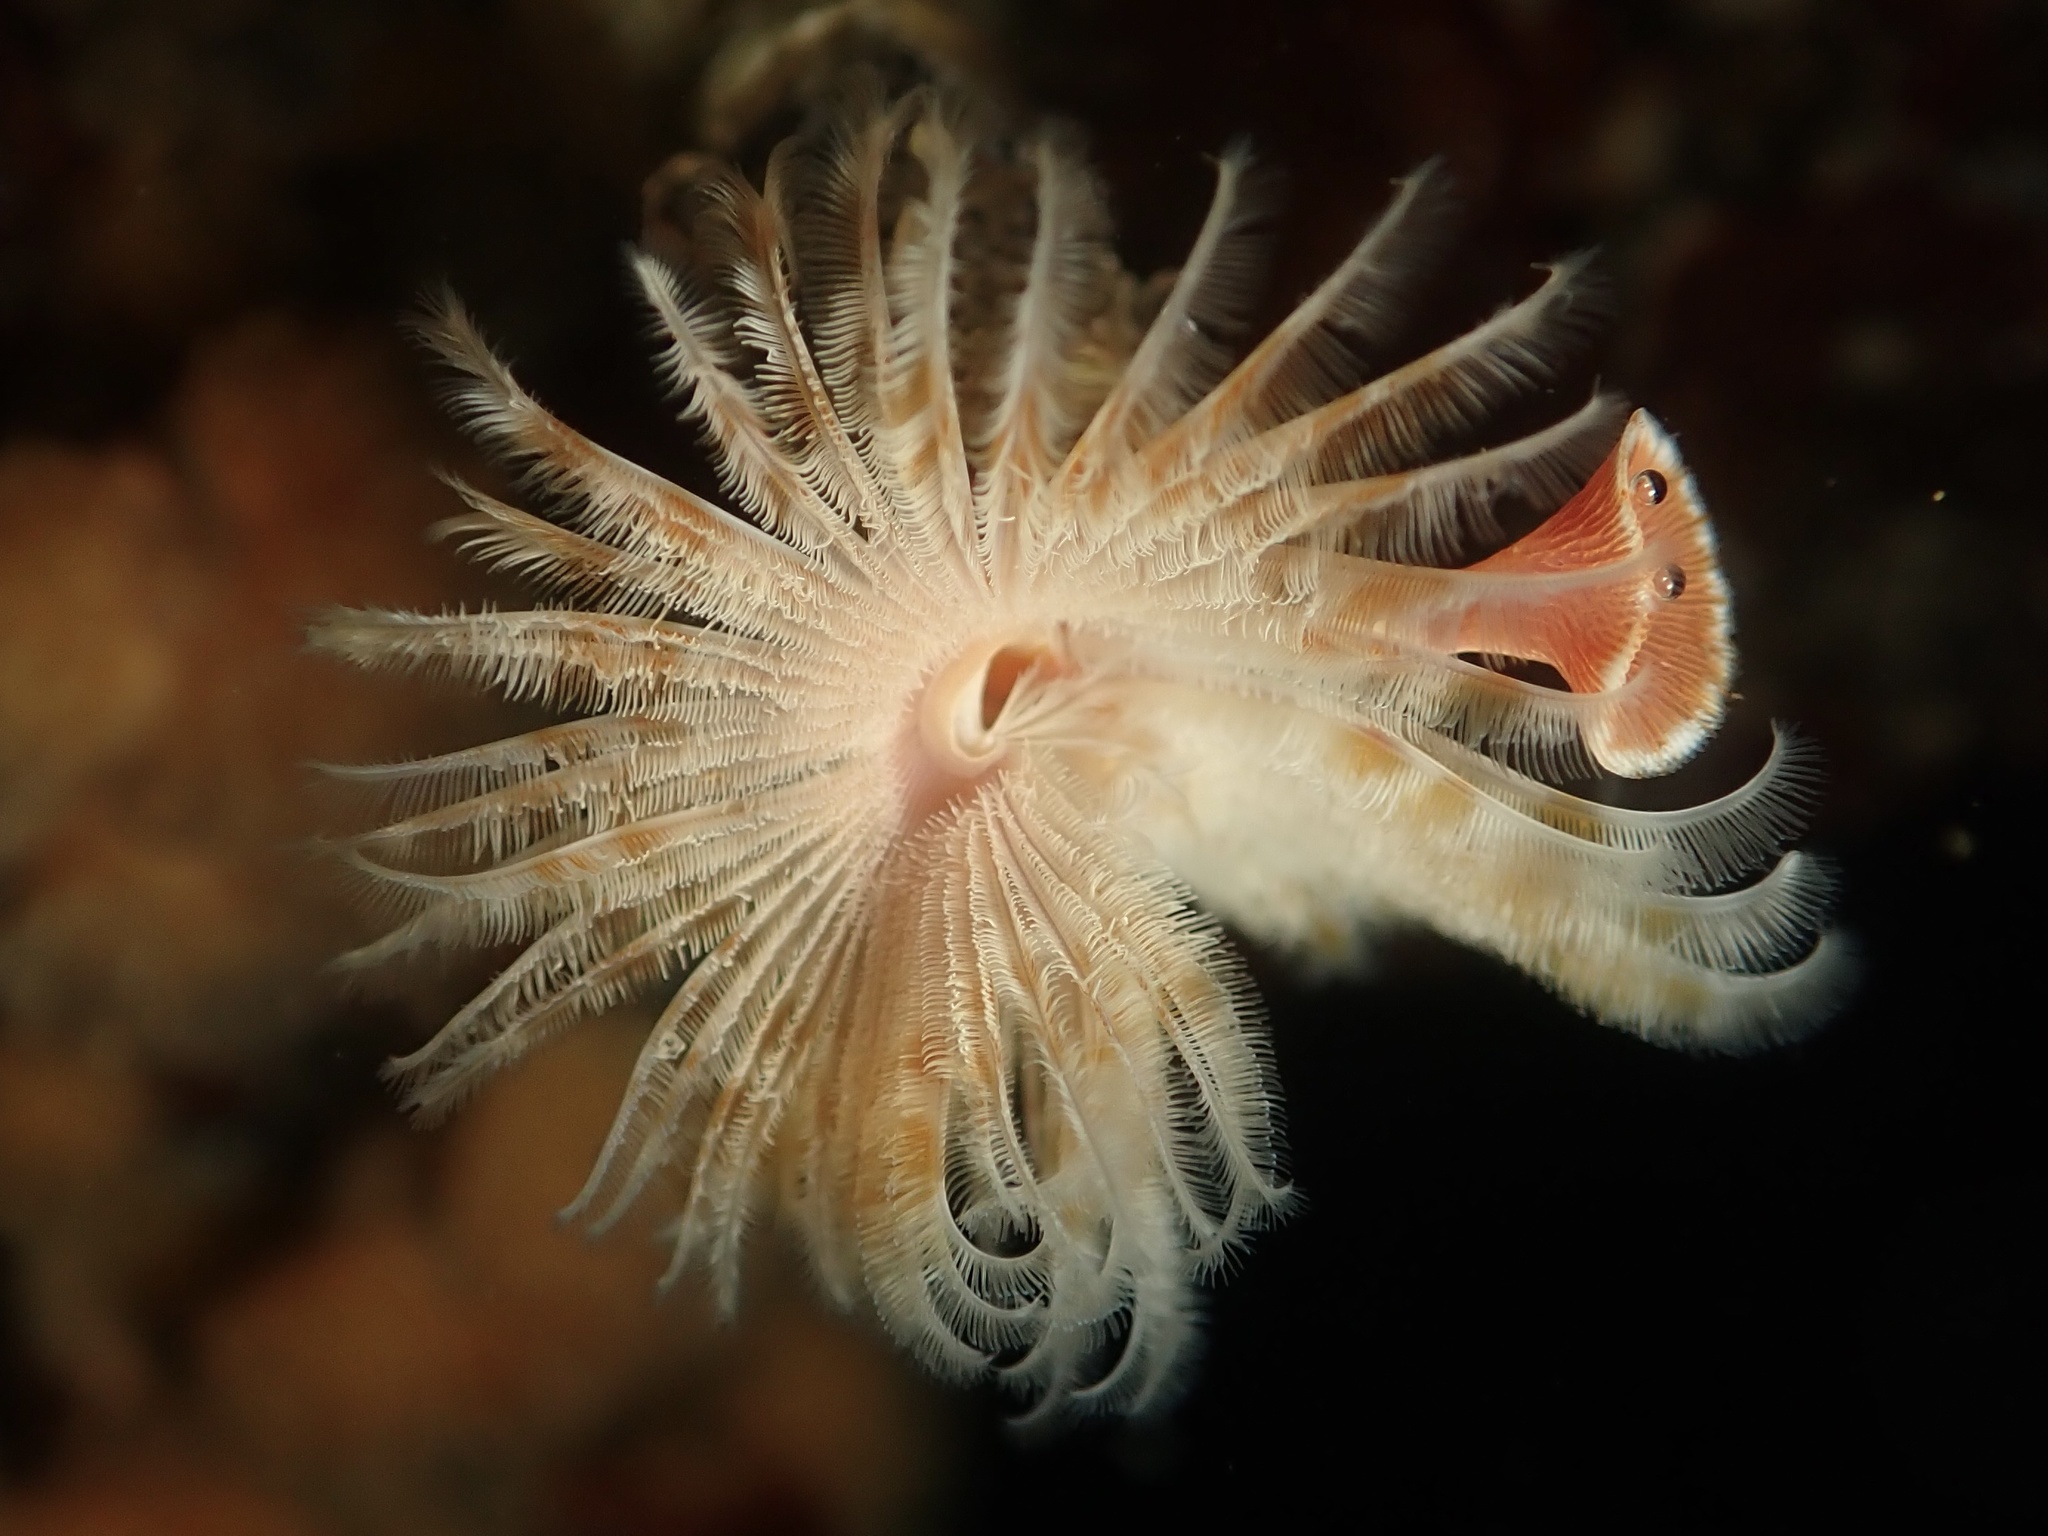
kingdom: Animalia
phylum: Annelida
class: Polychaeta
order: Sabellida
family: Serpulidae
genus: Serpula
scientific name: Serpula columbiana
